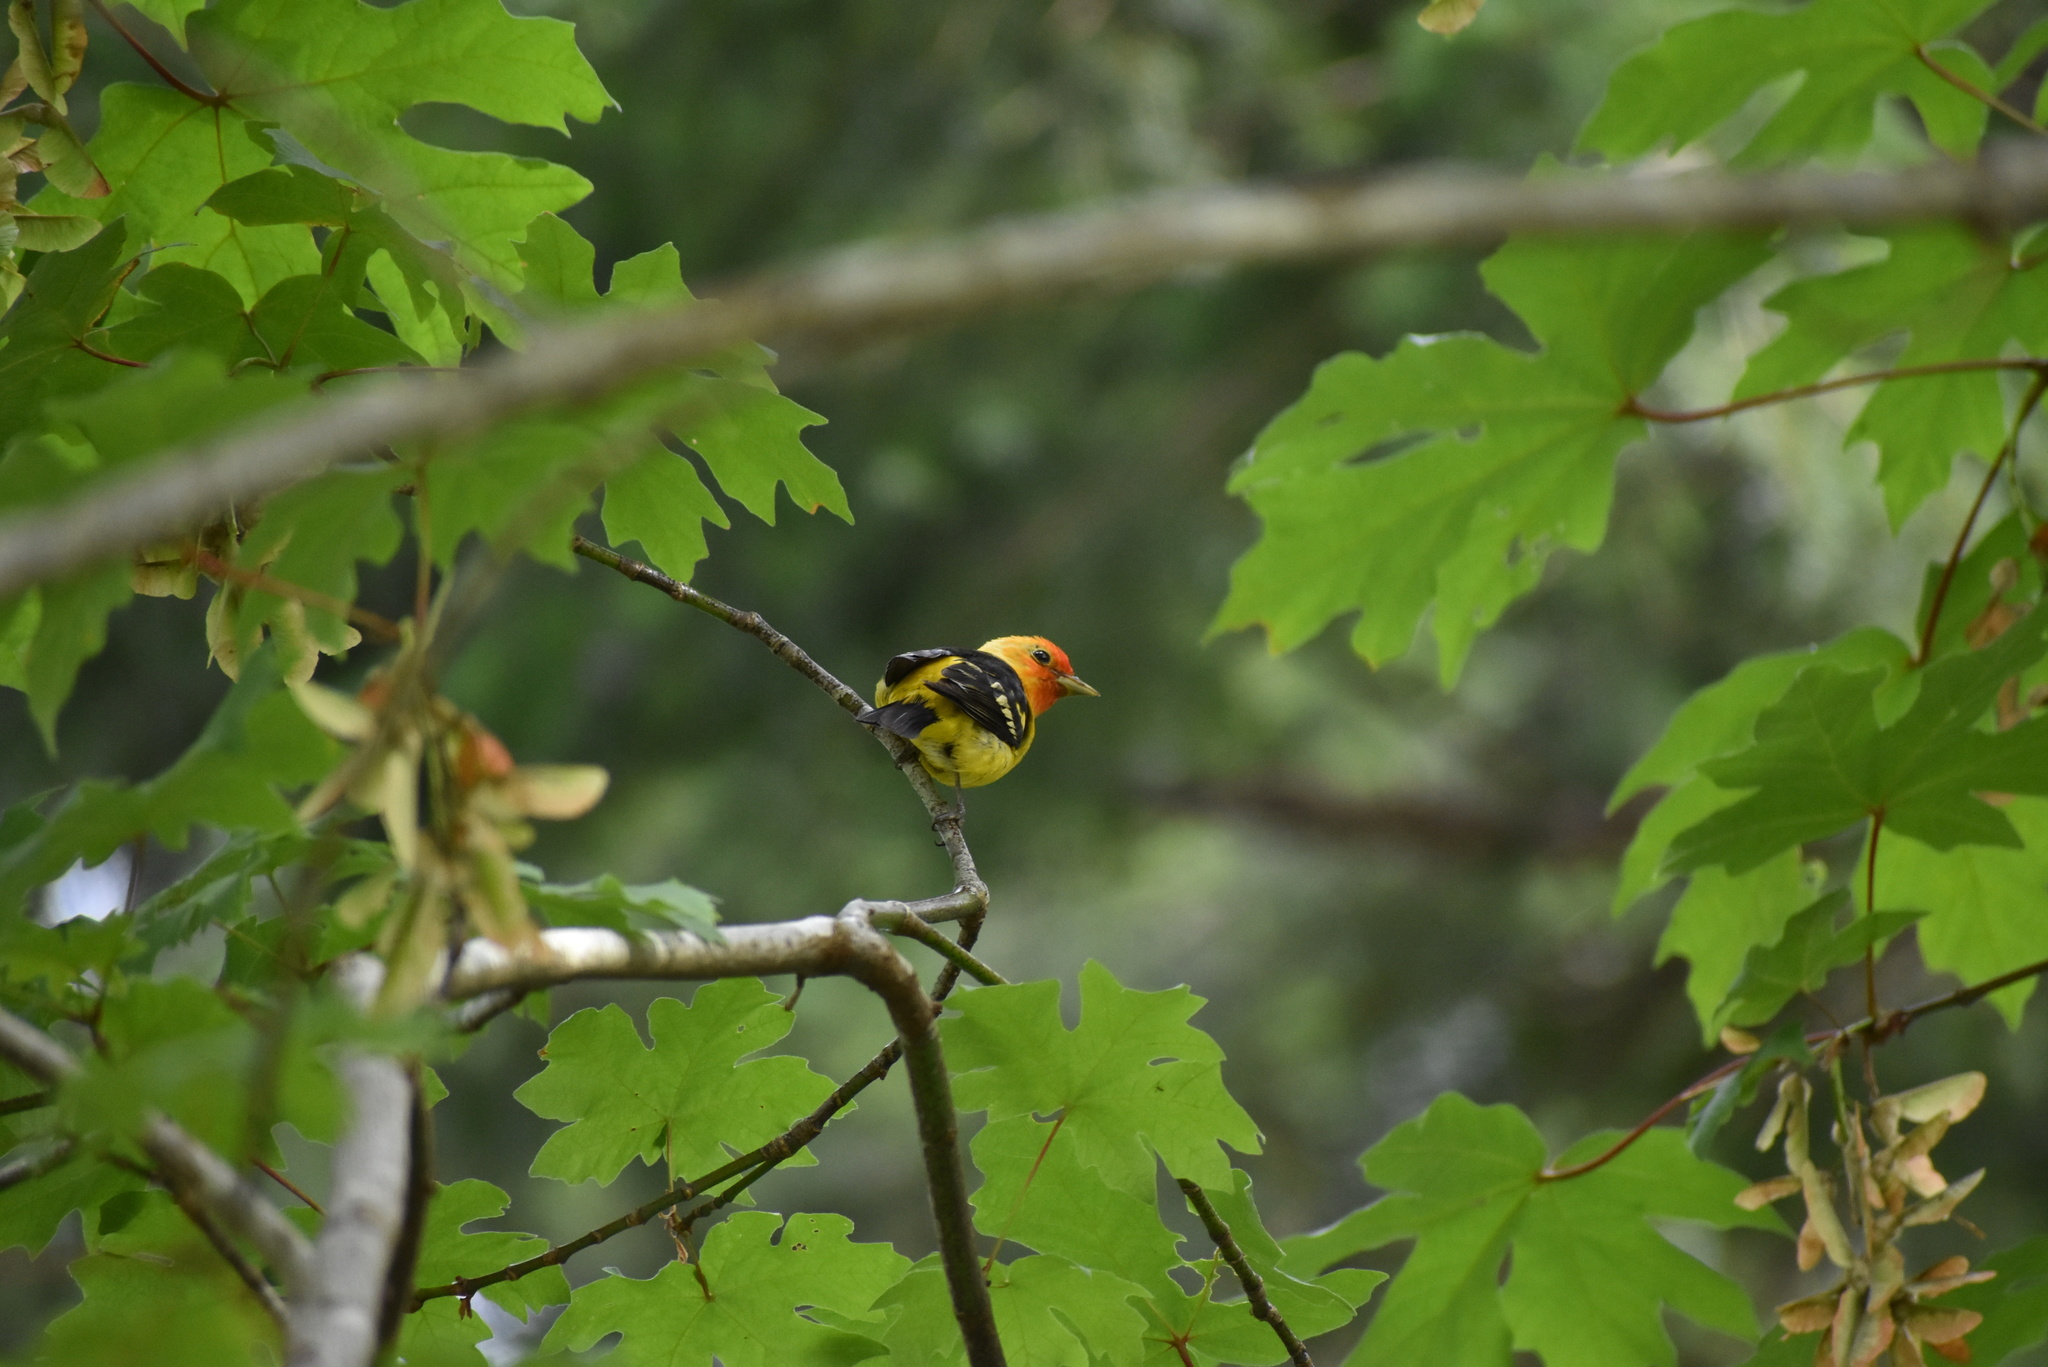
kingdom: Animalia
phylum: Chordata
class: Aves
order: Passeriformes
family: Cardinalidae
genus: Piranga
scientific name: Piranga ludoviciana
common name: Western tanager
